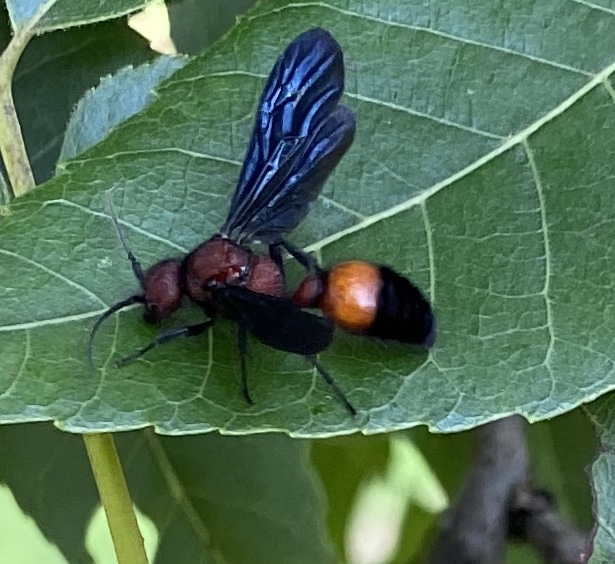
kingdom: Animalia
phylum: Arthropoda
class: Insecta
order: Hymenoptera
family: Mutillidae
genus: Sphaeropthalma
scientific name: Sphaeropthalma
